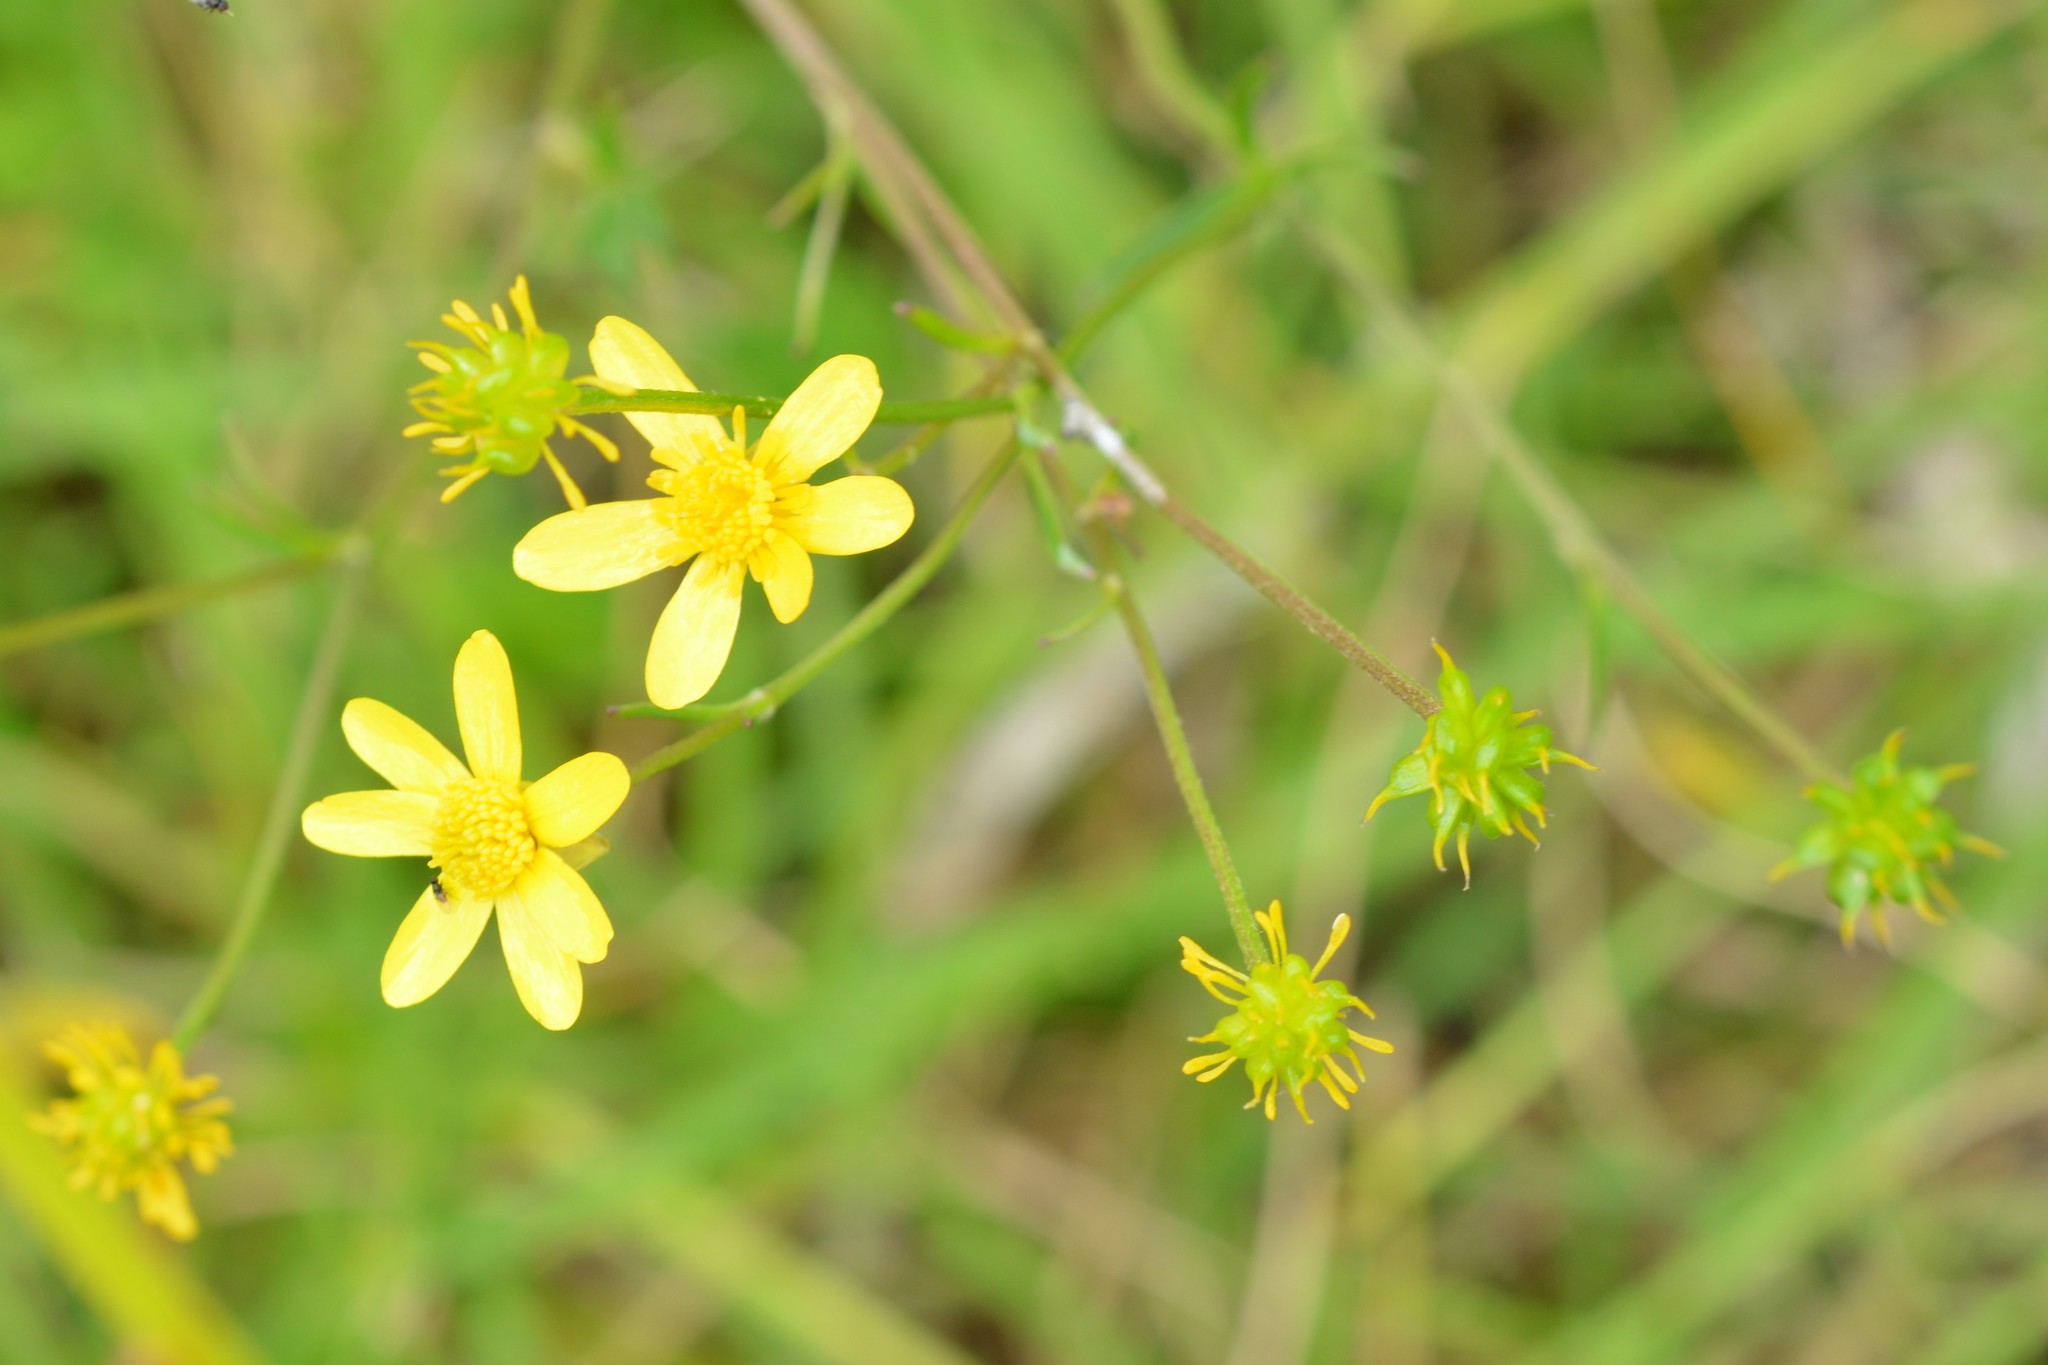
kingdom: Plantae
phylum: Tracheophyta
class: Magnoliopsida
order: Ranunculales
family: Ranunculaceae
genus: Ranunculus
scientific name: Ranunculus petiolaris
